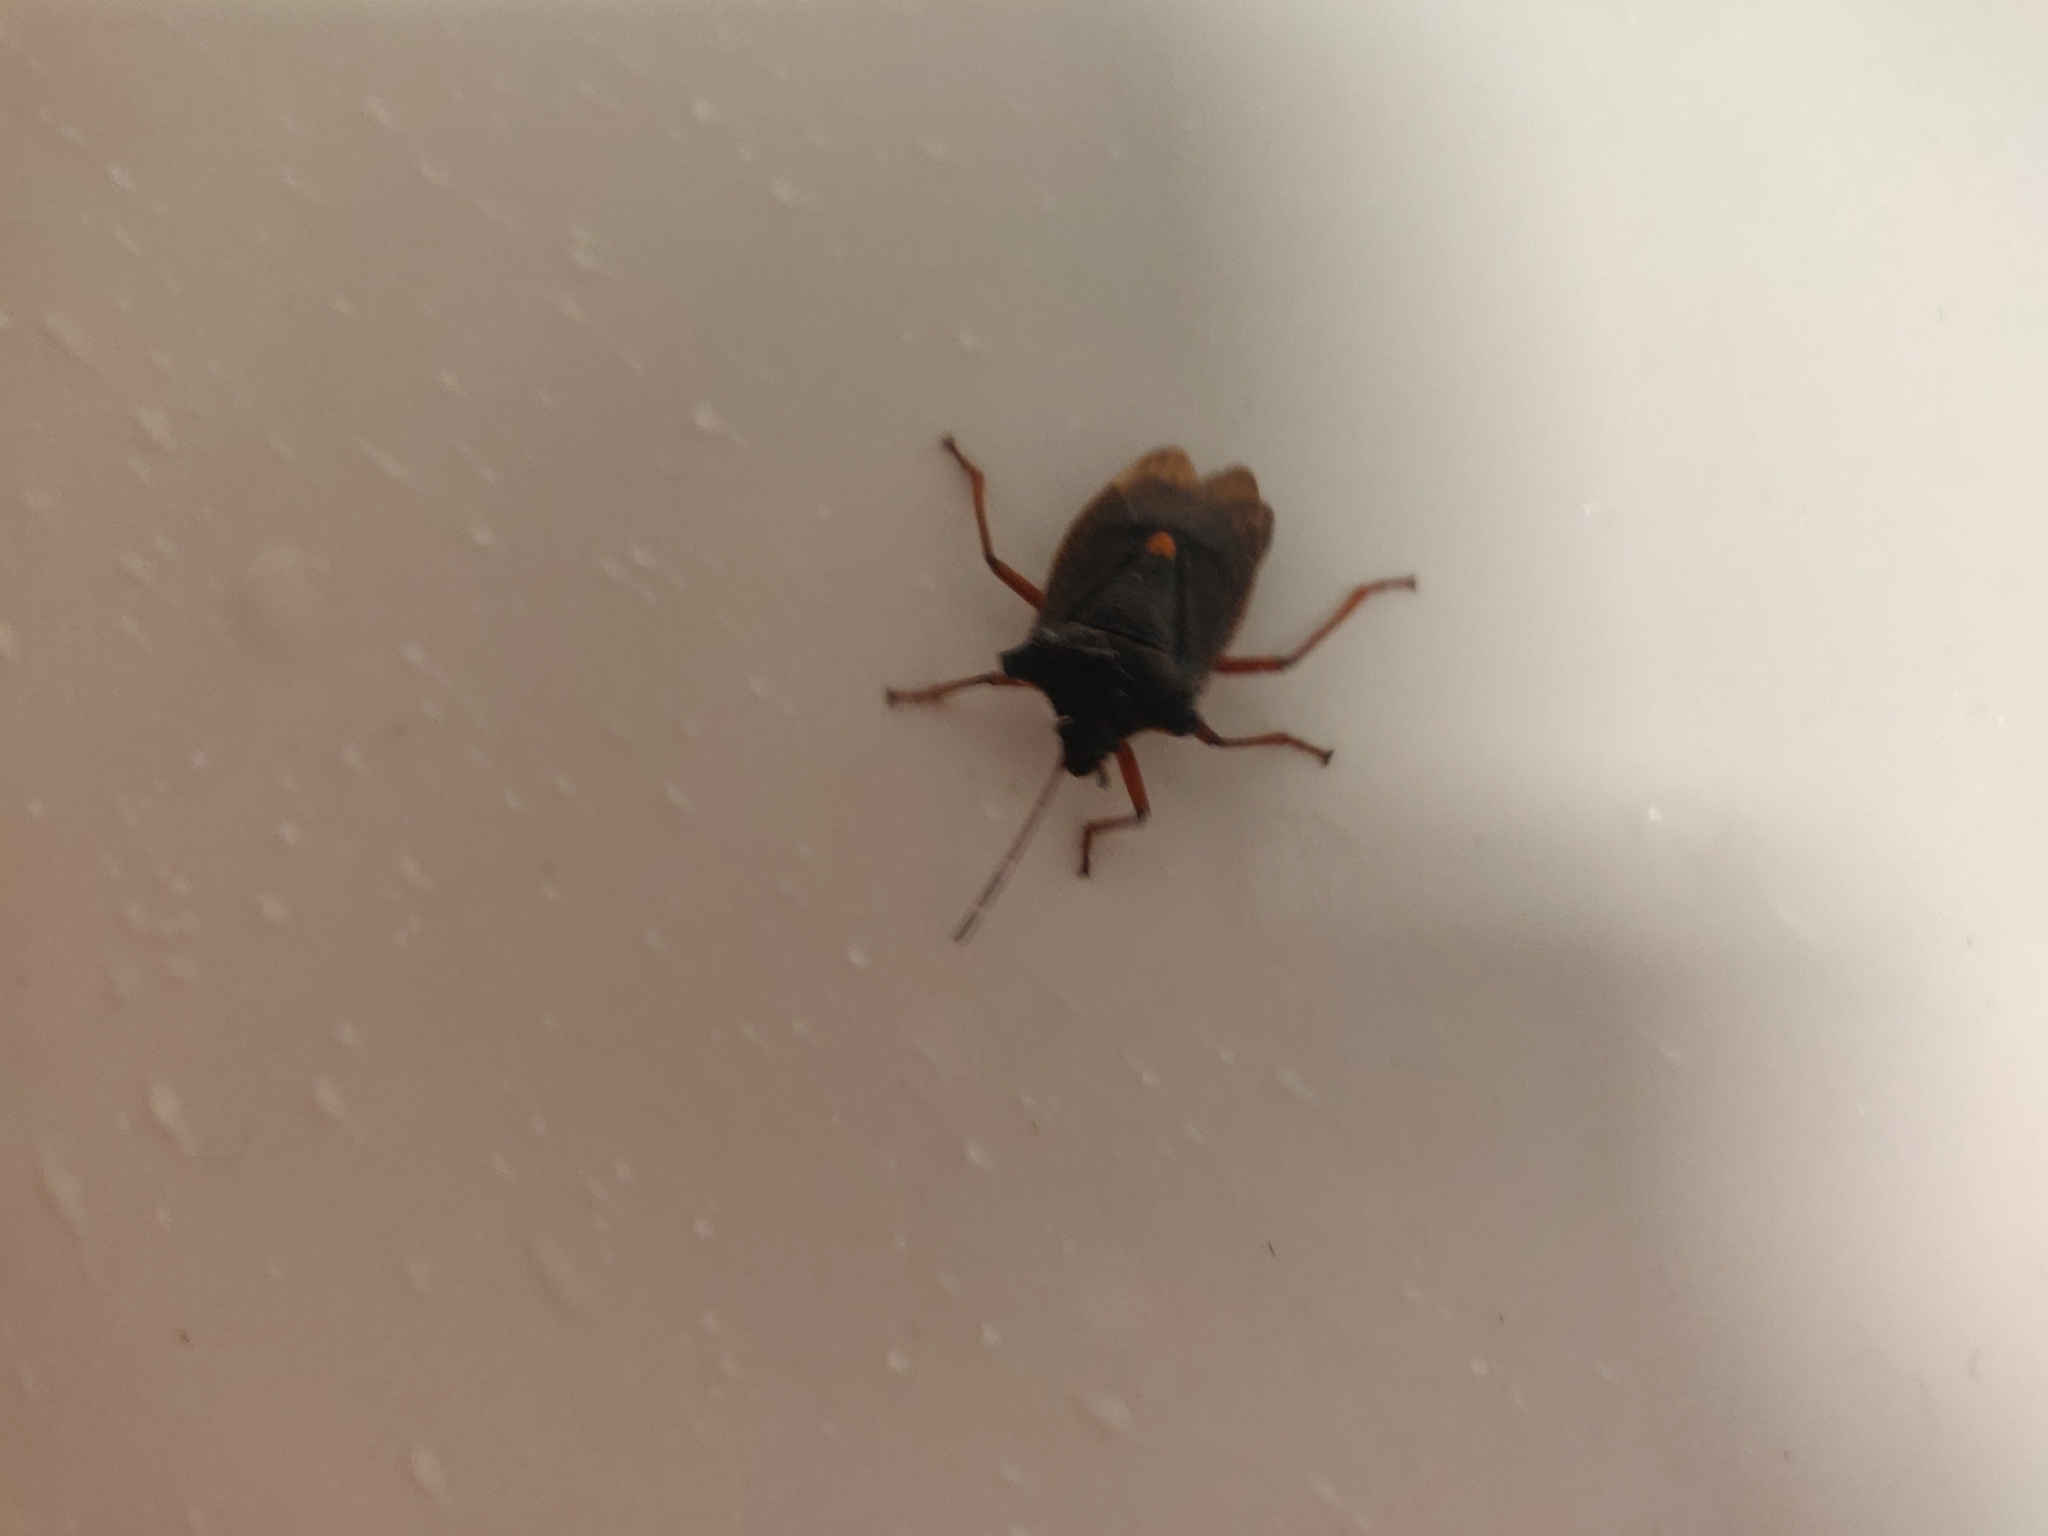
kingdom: Animalia
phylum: Arthropoda
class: Insecta
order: Hemiptera
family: Pentatomidae
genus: Pentatoma
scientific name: Pentatoma rufipes
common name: Forest bug
